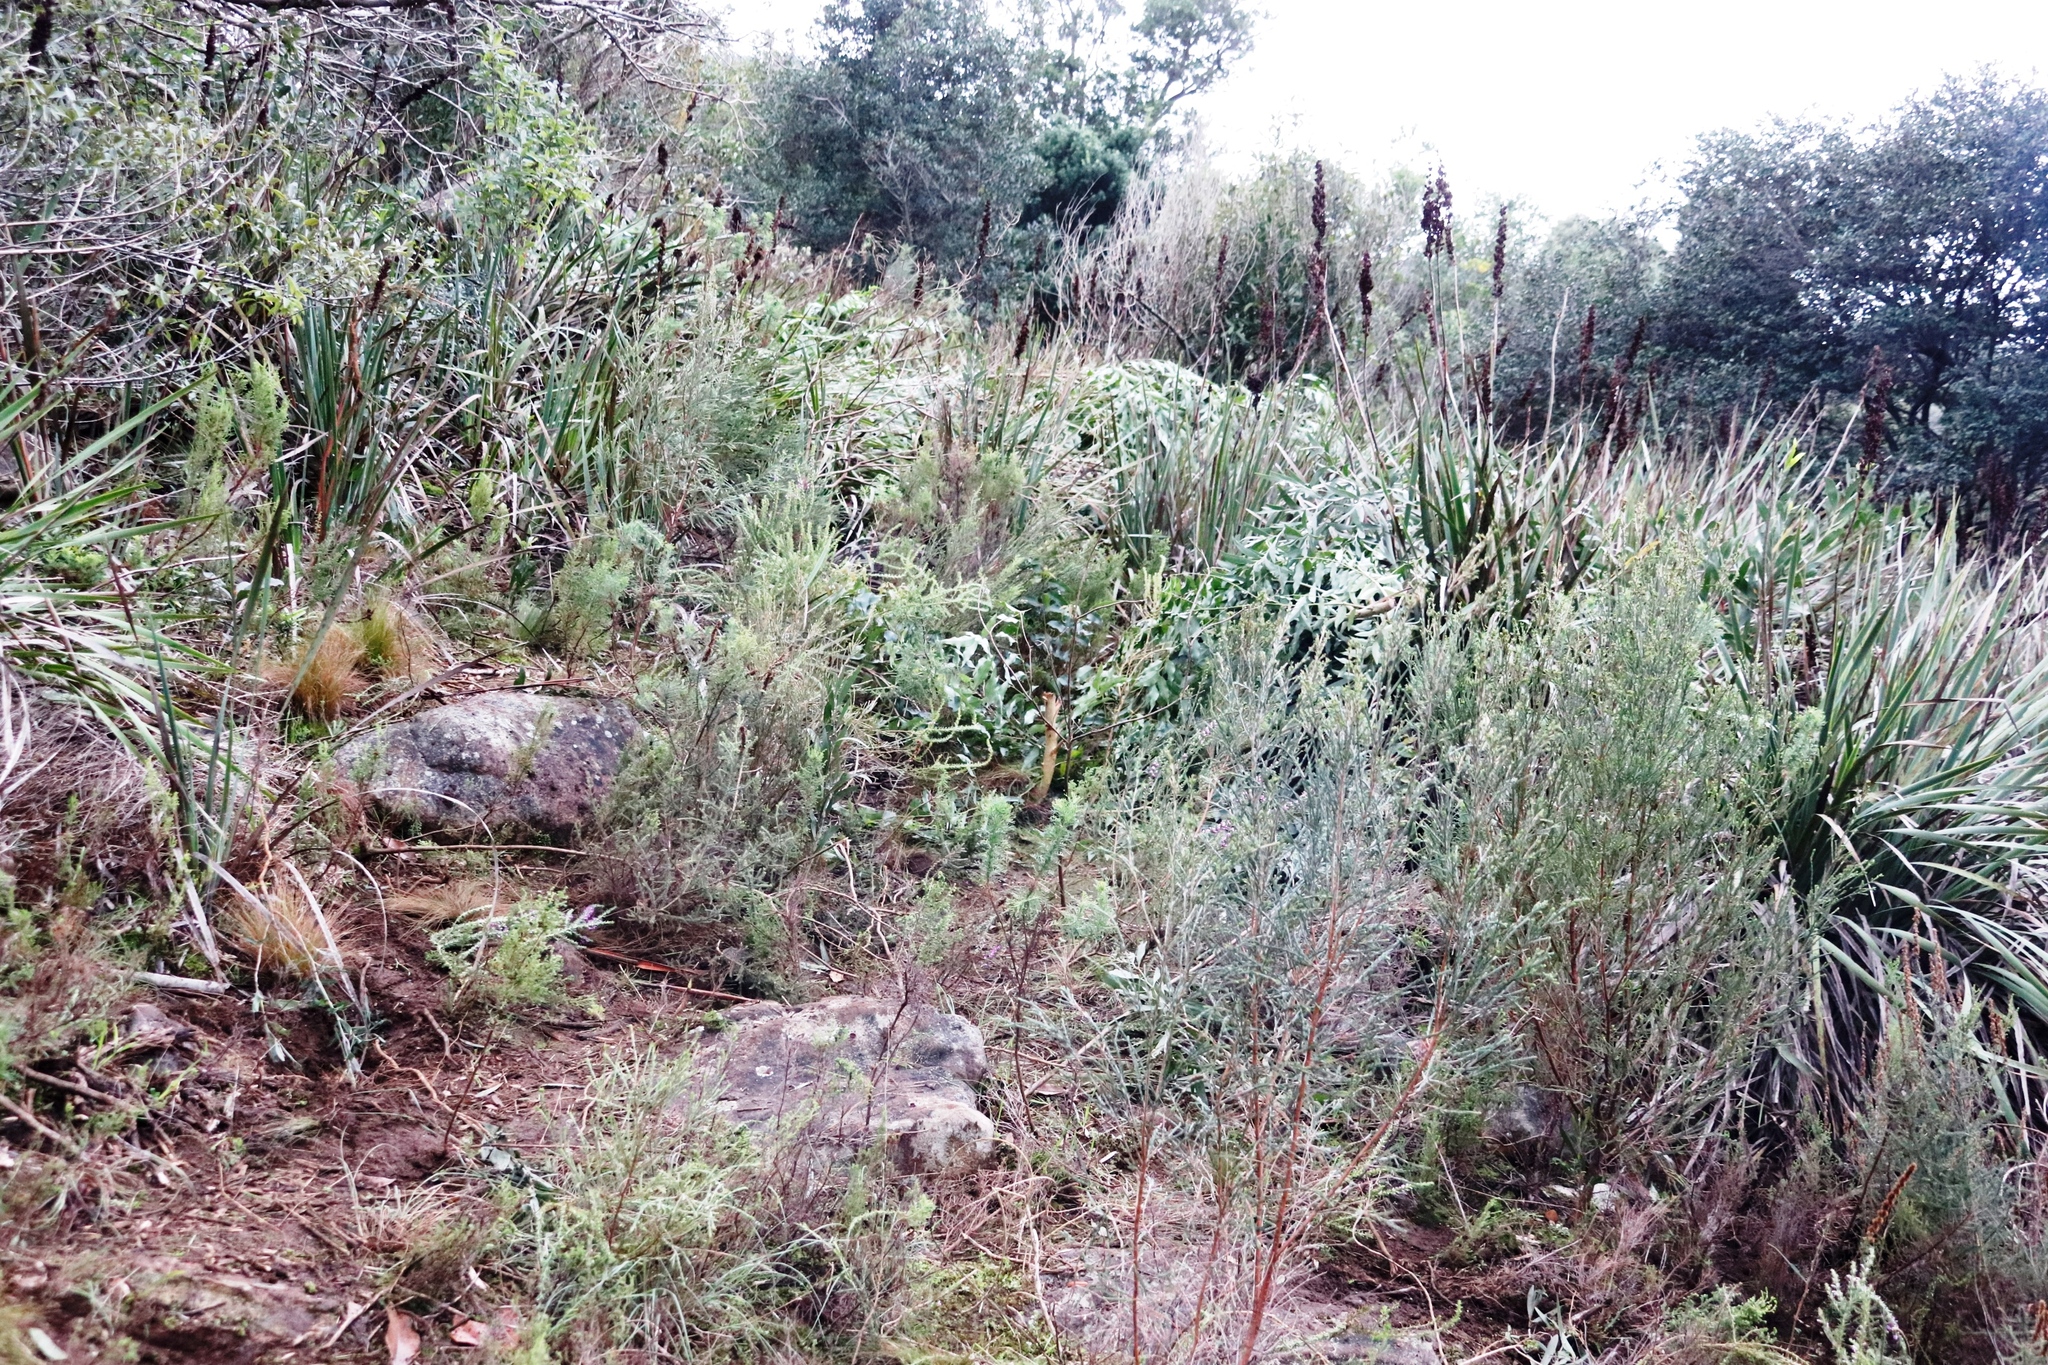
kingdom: Plantae
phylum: Tracheophyta
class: Liliopsida
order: Asparagales
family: Iridaceae
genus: Aristea
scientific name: Aristea bakeri
